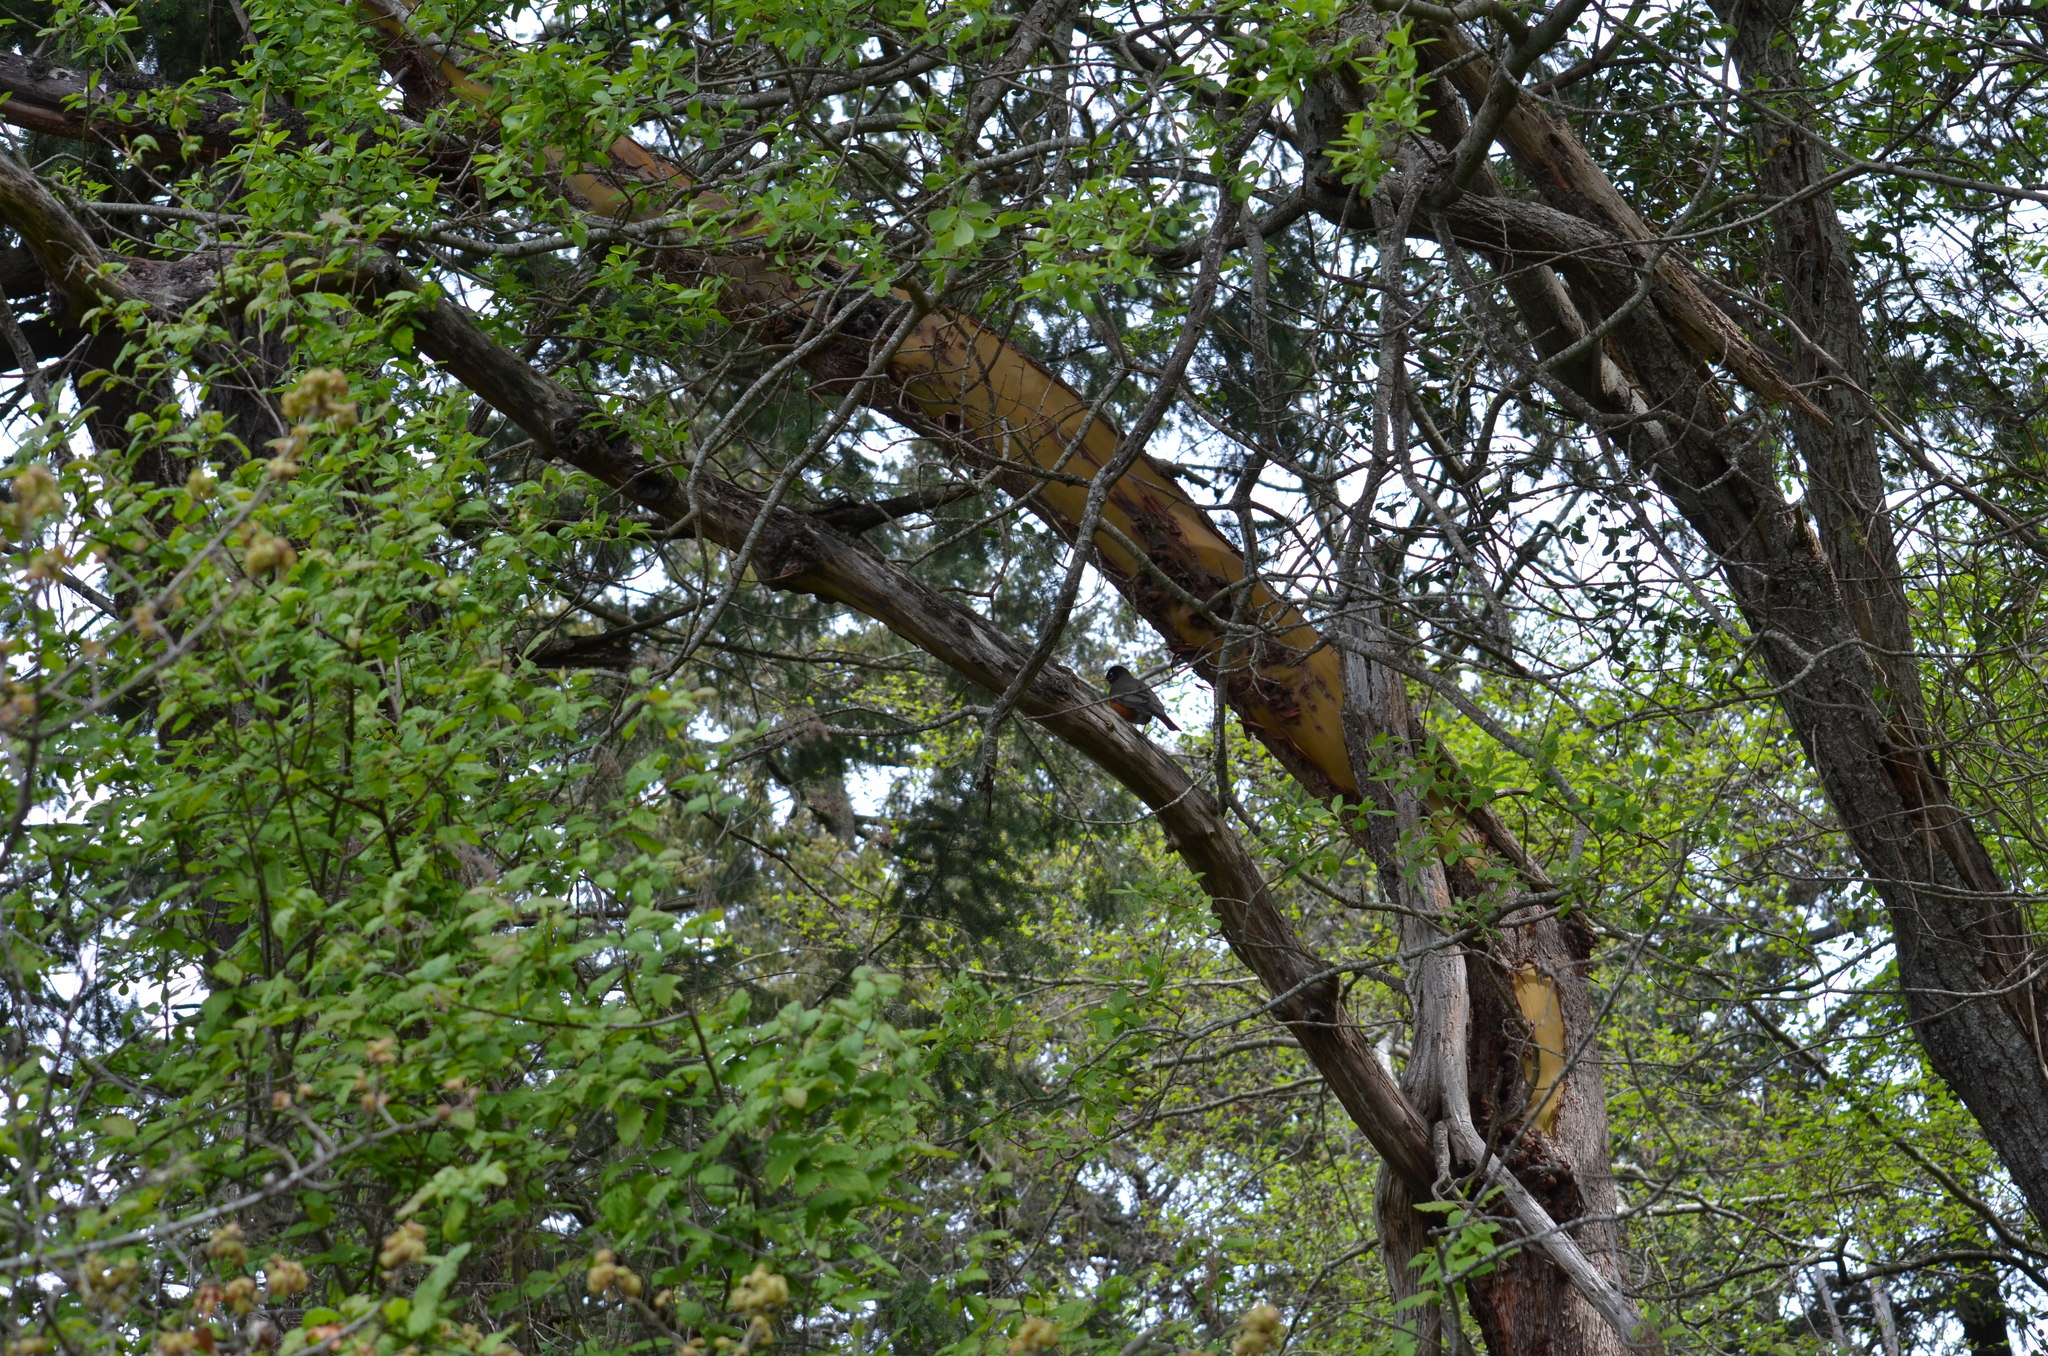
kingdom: Animalia
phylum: Chordata
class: Aves
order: Passeriformes
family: Turdidae
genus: Turdus
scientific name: Turdus migratorius
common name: American robin
